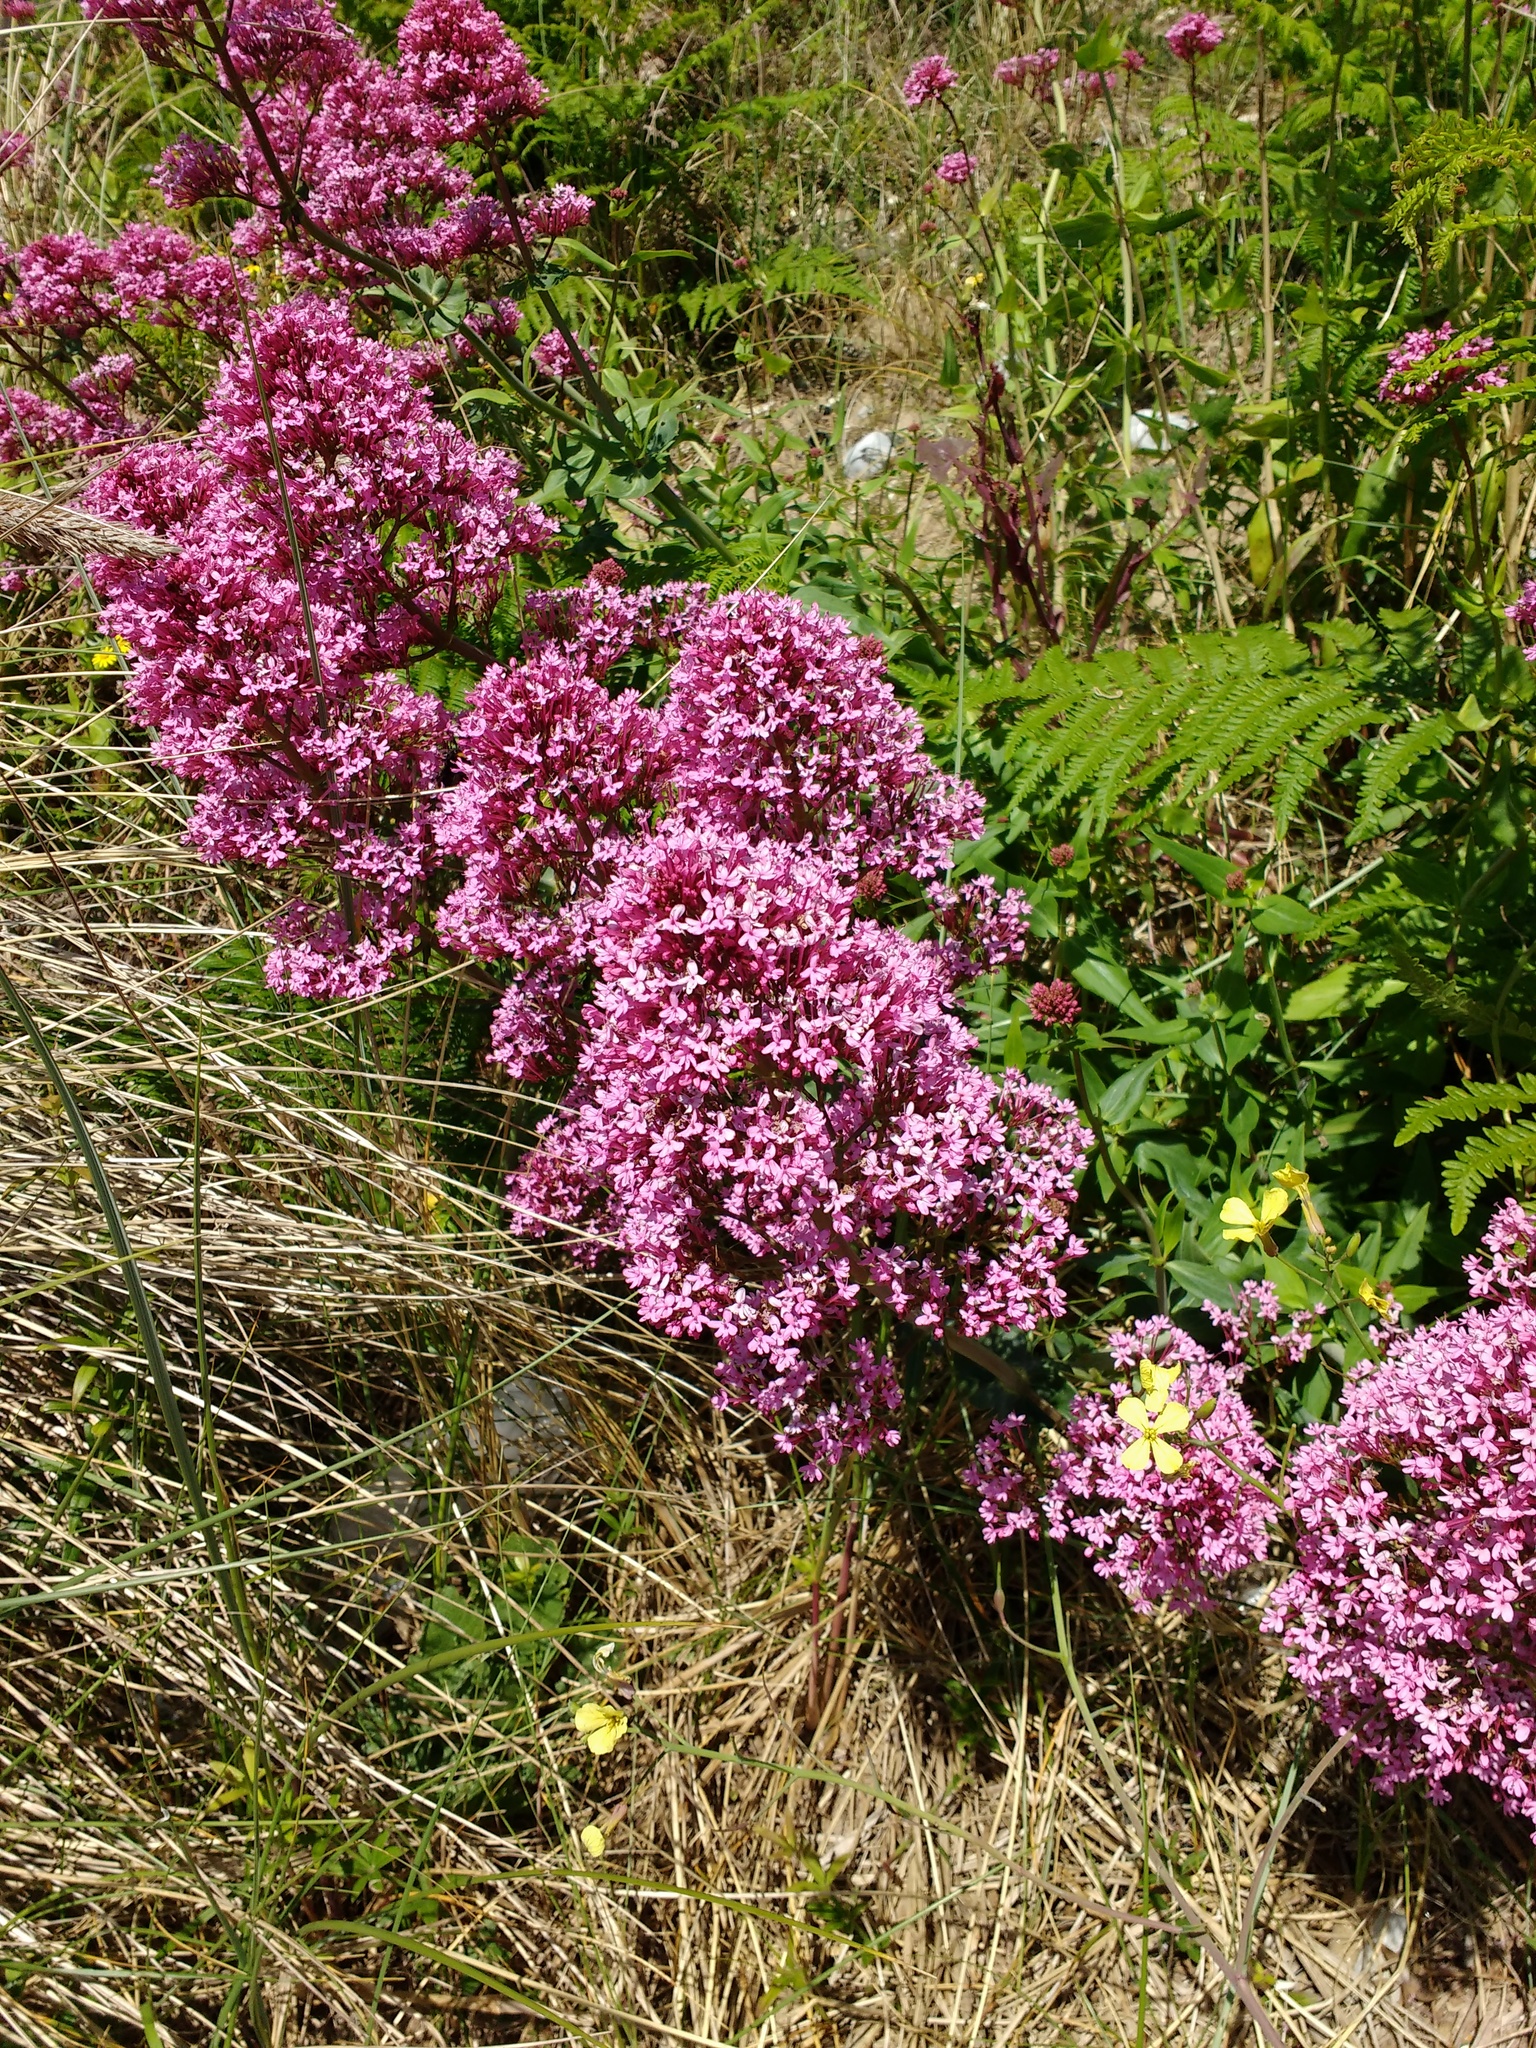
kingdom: Plantae
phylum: Tracheophyta
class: Magnoliopsida
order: Dipsacales
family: Caprifoliaceae
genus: Centranthus
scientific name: Centranthus ruber
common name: Red valerian
